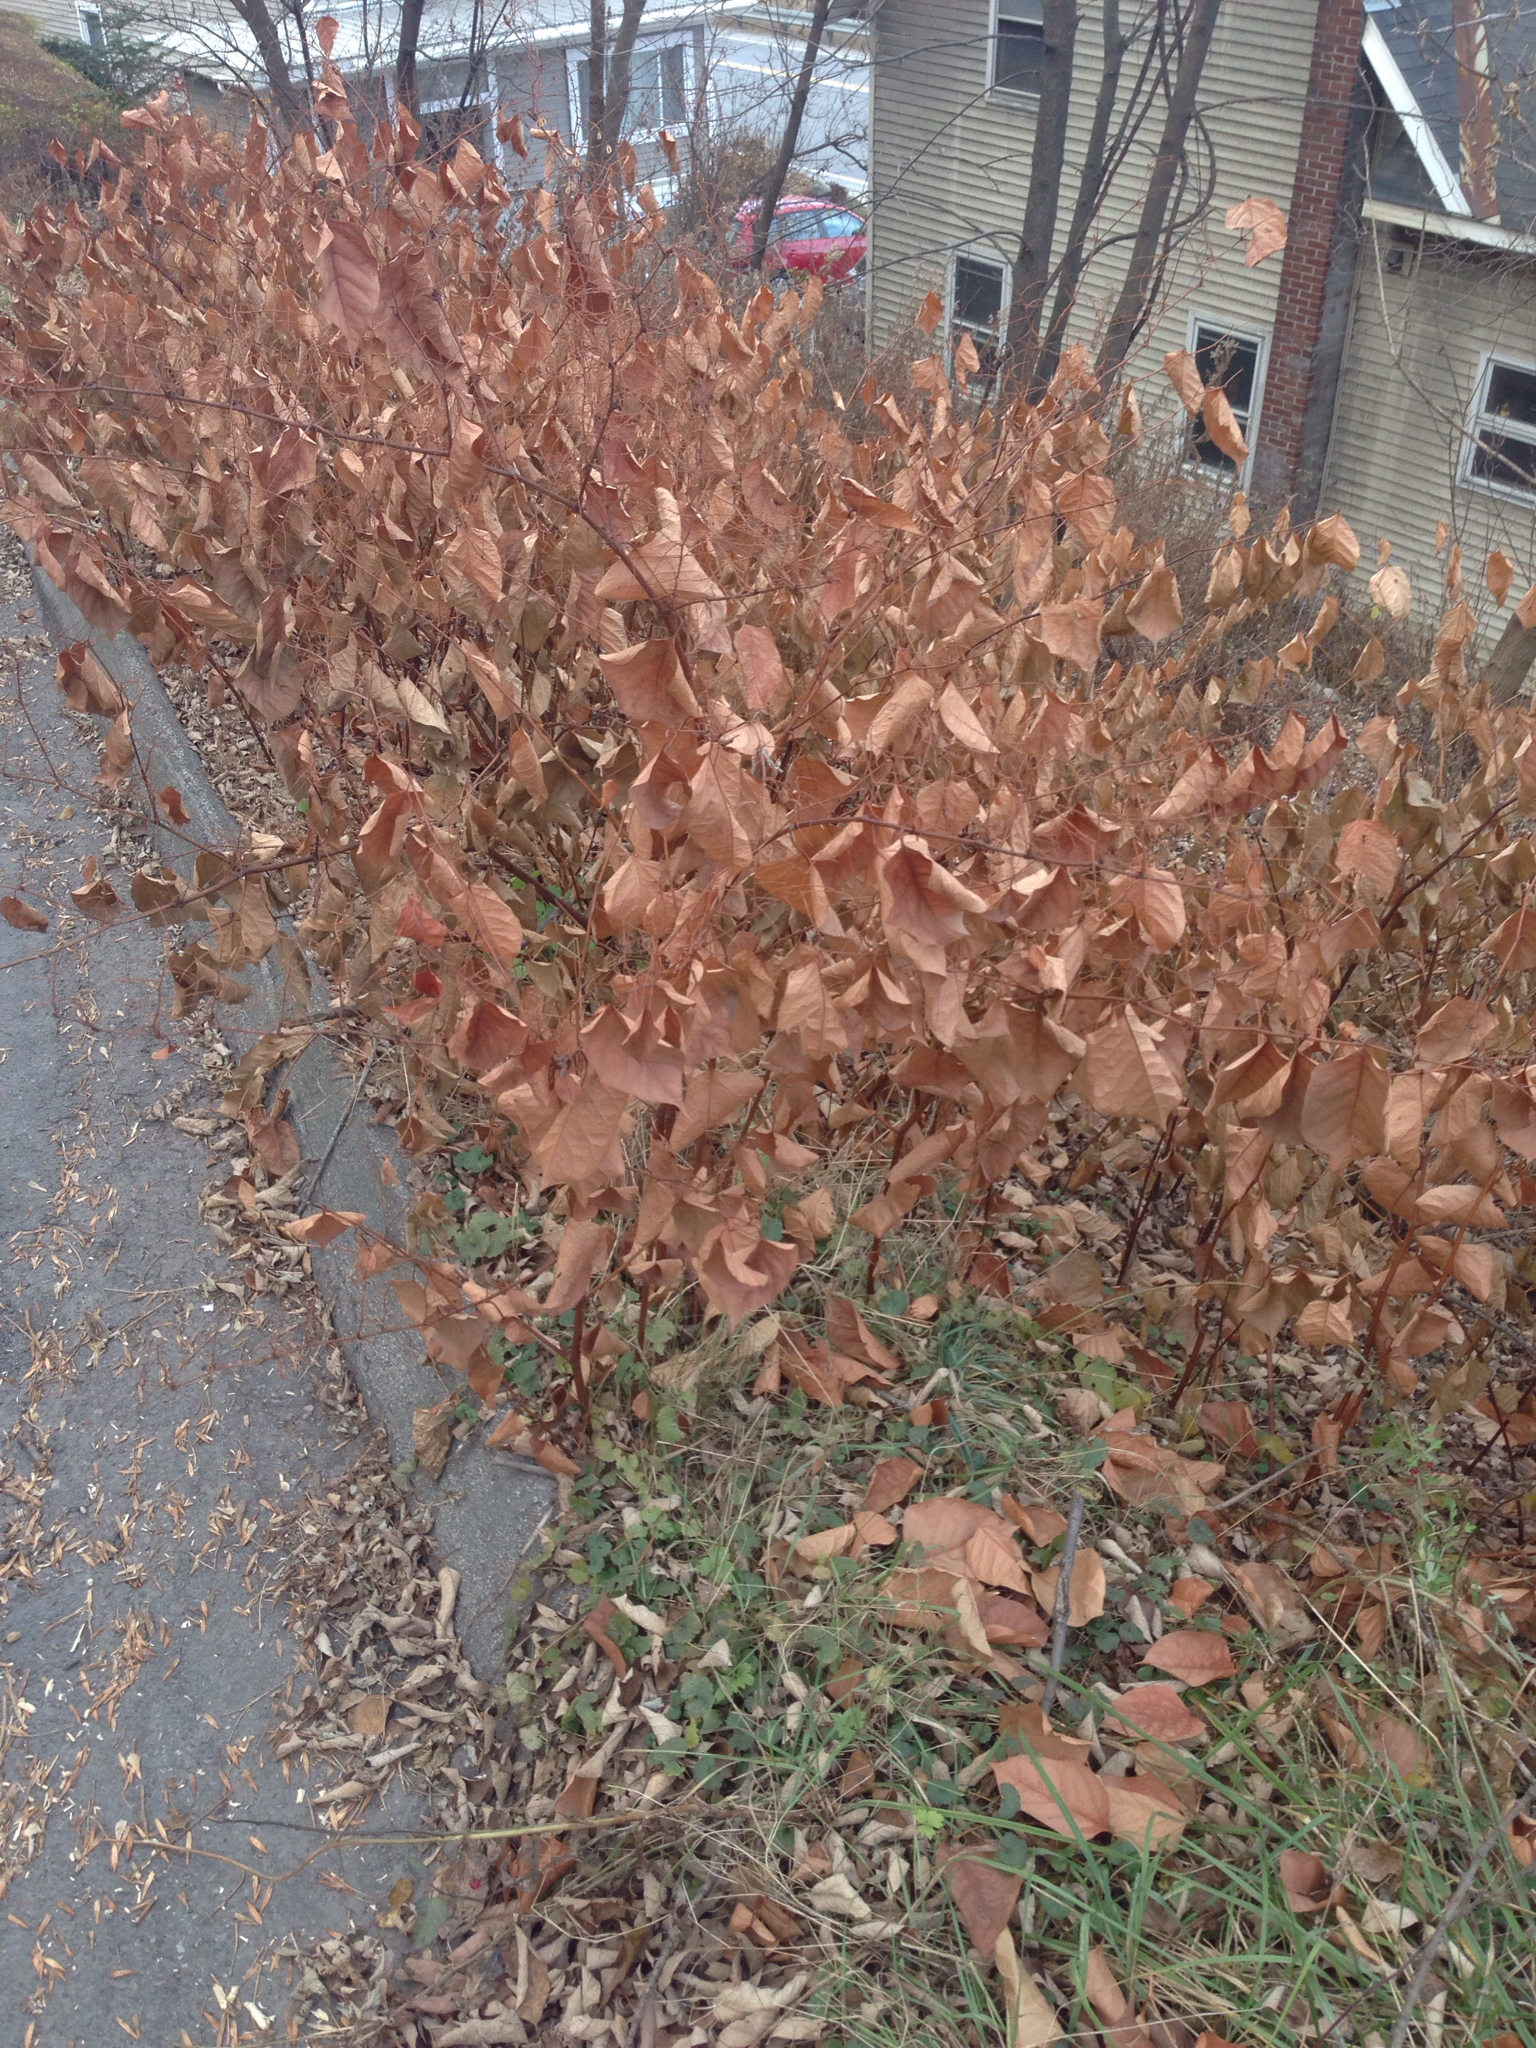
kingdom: Plantae
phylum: Tracheophyta
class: Magnoliopsida
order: Caryophyllales
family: Polygonaceae
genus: Reynoutria
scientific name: Reynoutria japonica
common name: Japanese knotweed
